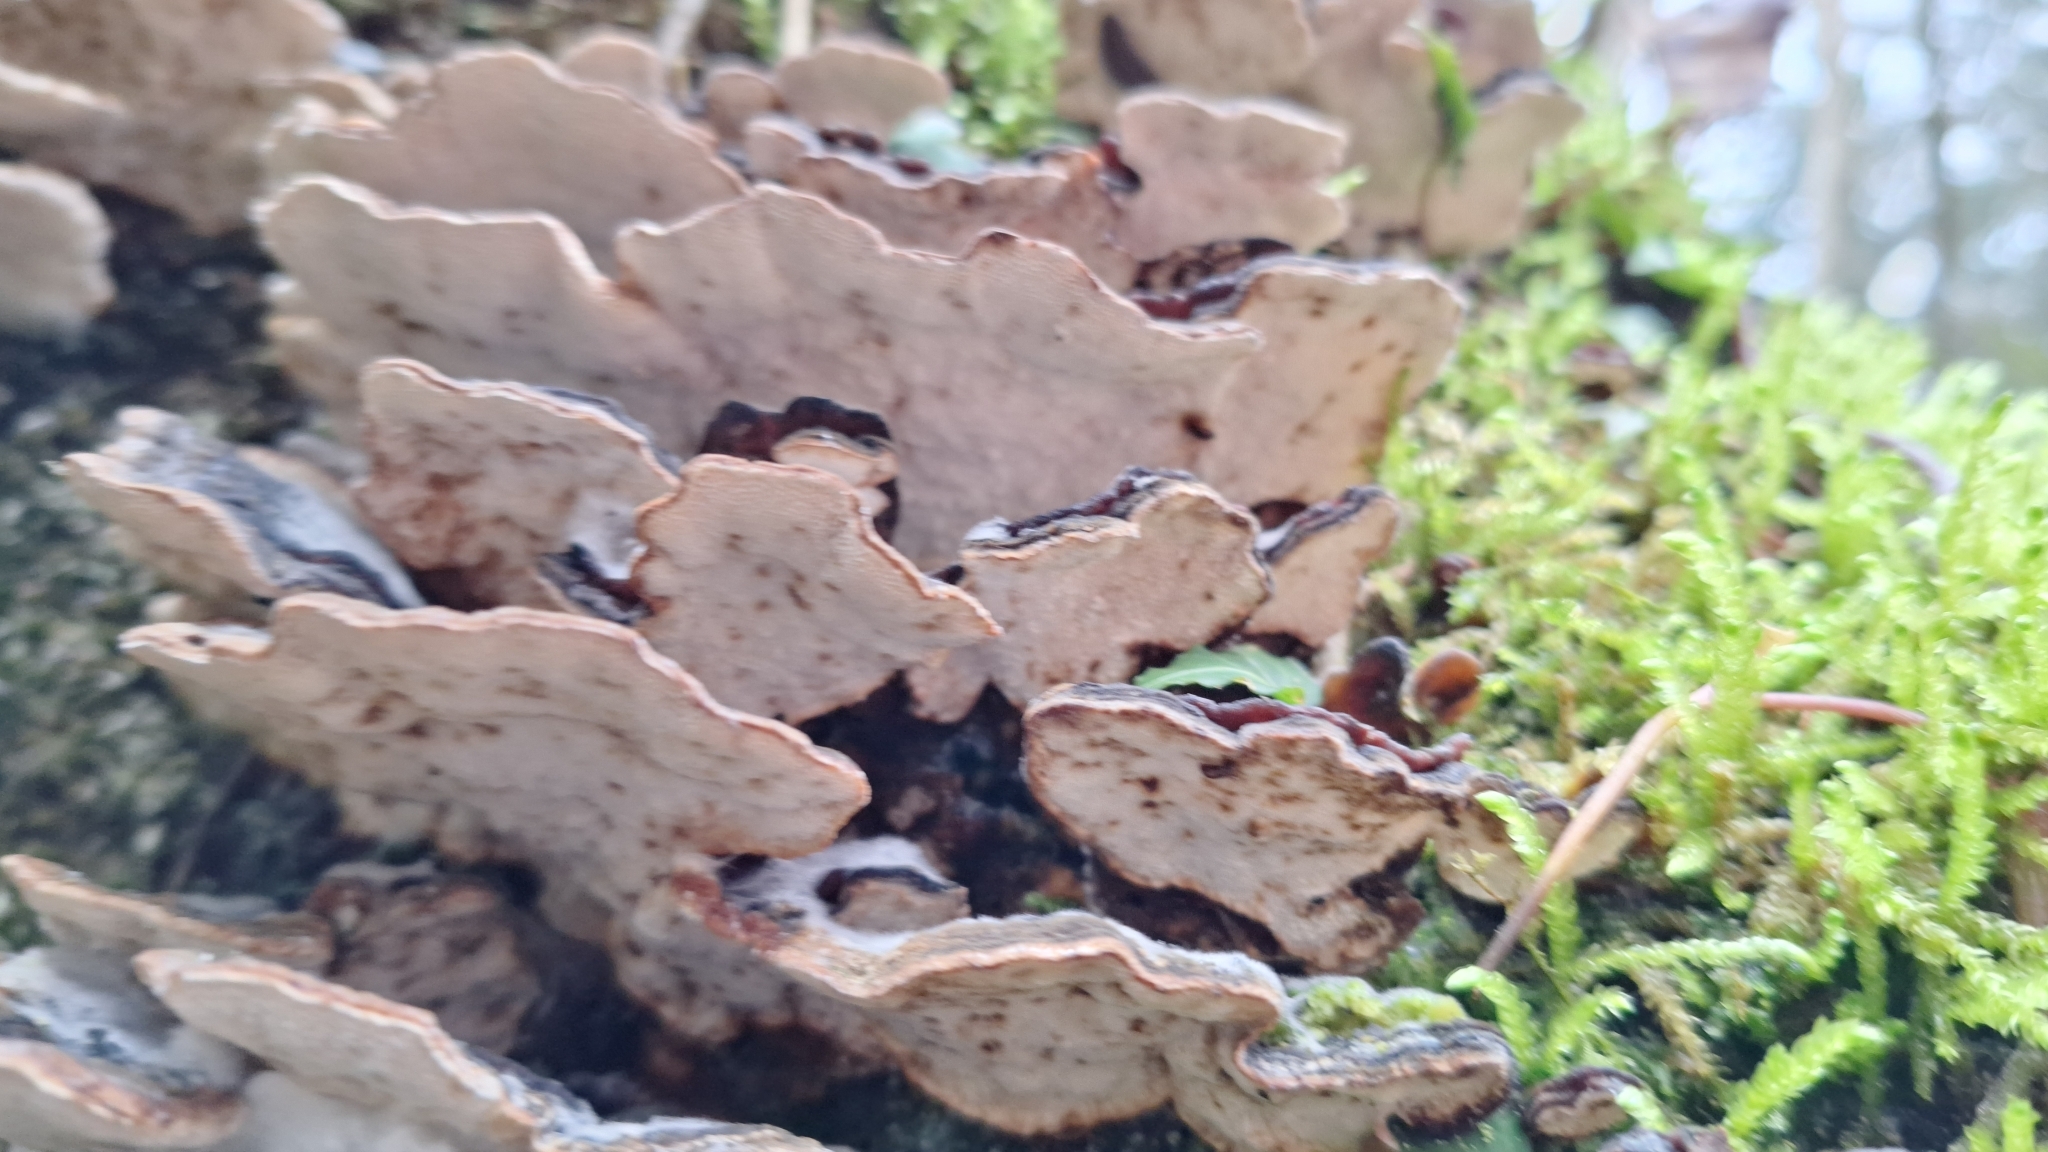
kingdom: Fungi
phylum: Basidiomycota
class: Agaricomycetes
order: Polyporales
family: Polyporaceae
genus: Trametes
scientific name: Trametes versicolor
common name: Turkeytail
